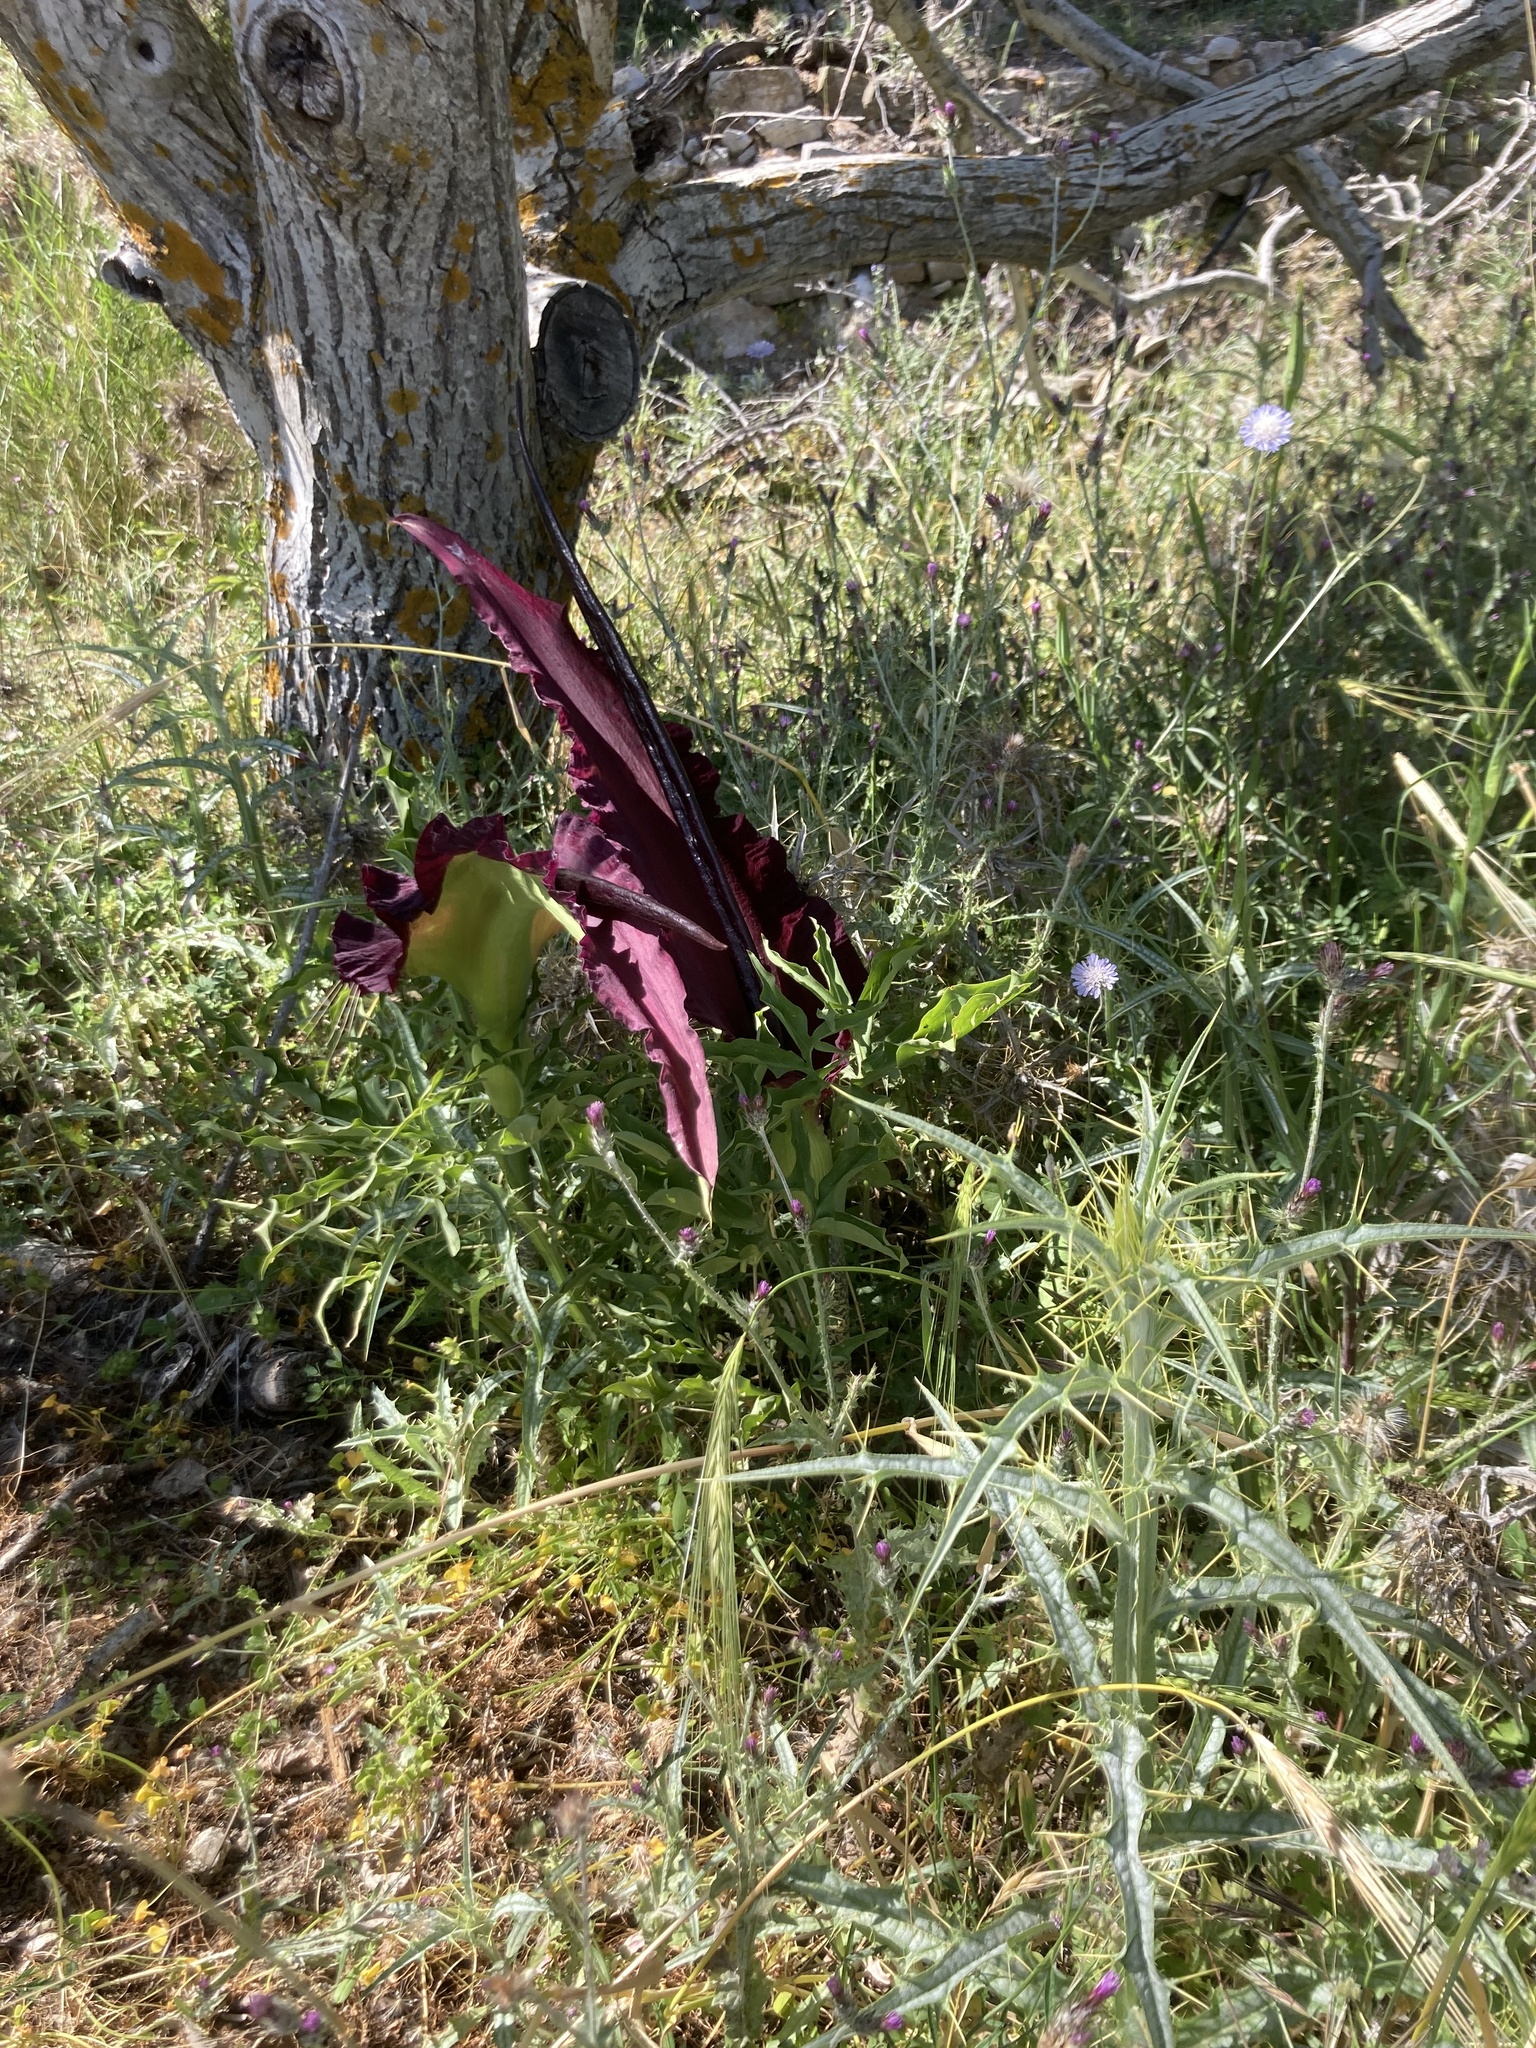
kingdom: Plantae
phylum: Tracheophyta
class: Liliopsida
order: Alismatales
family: Araceae
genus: Dracunculus
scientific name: Dracunculus vulgaris
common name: Dragon arum
